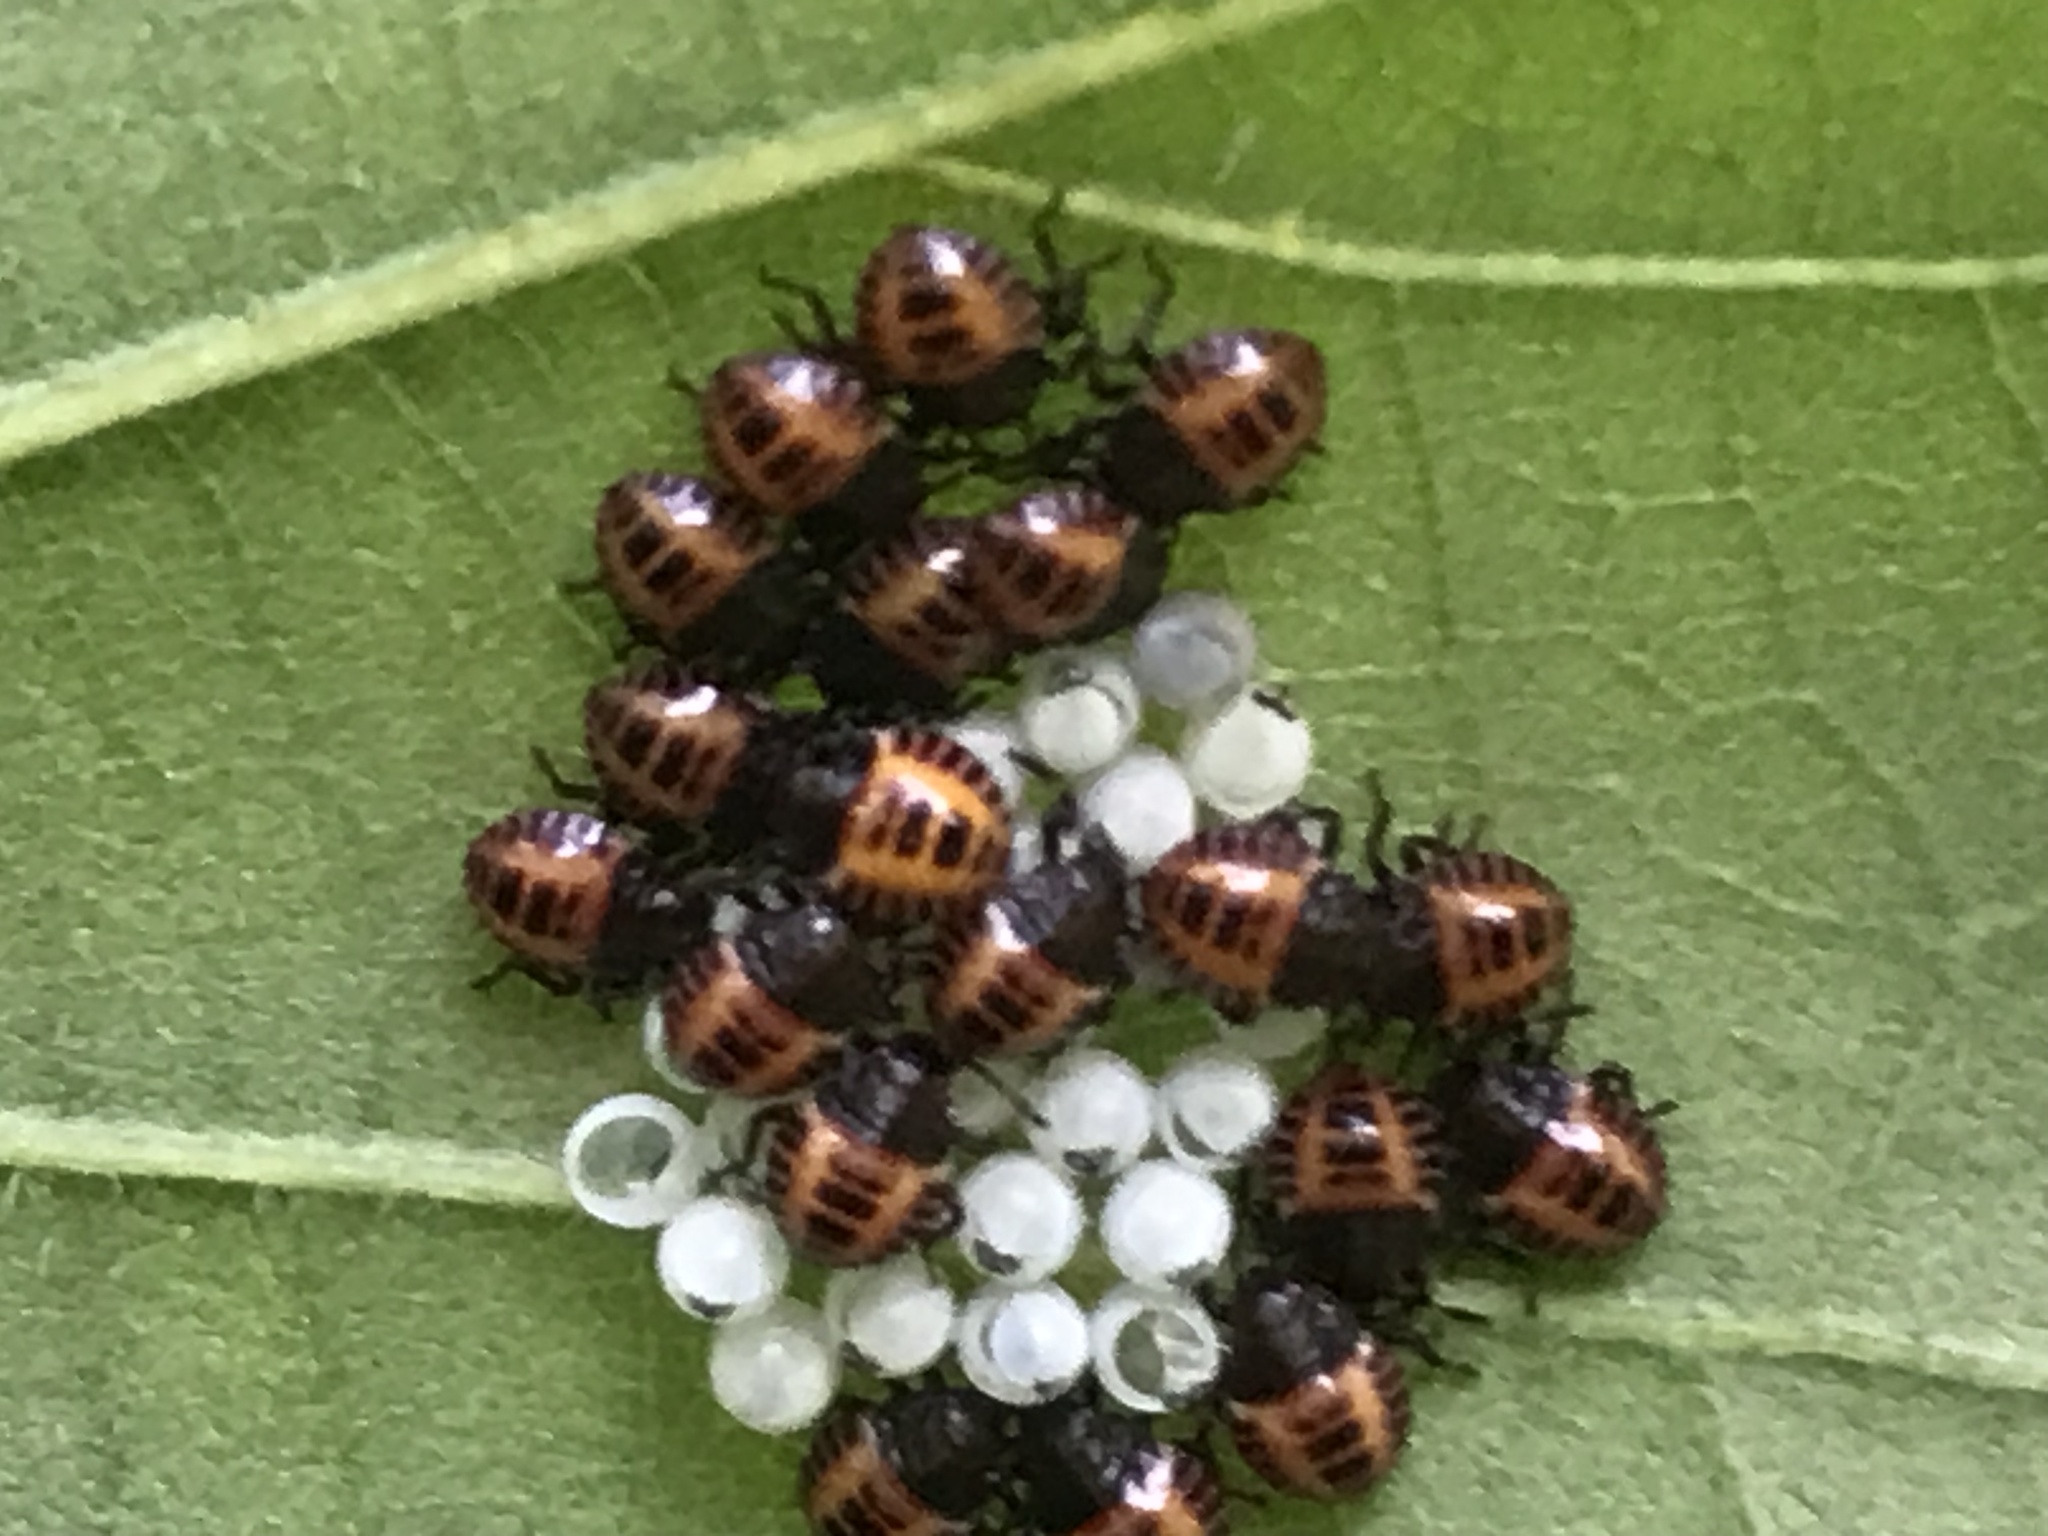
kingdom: Animalia
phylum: Arthropoda
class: Insecta
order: Hemiptera
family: Pentatomidae
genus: Halyomorpha
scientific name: Halyomorpha halys
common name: Brown marmorated stink bug
